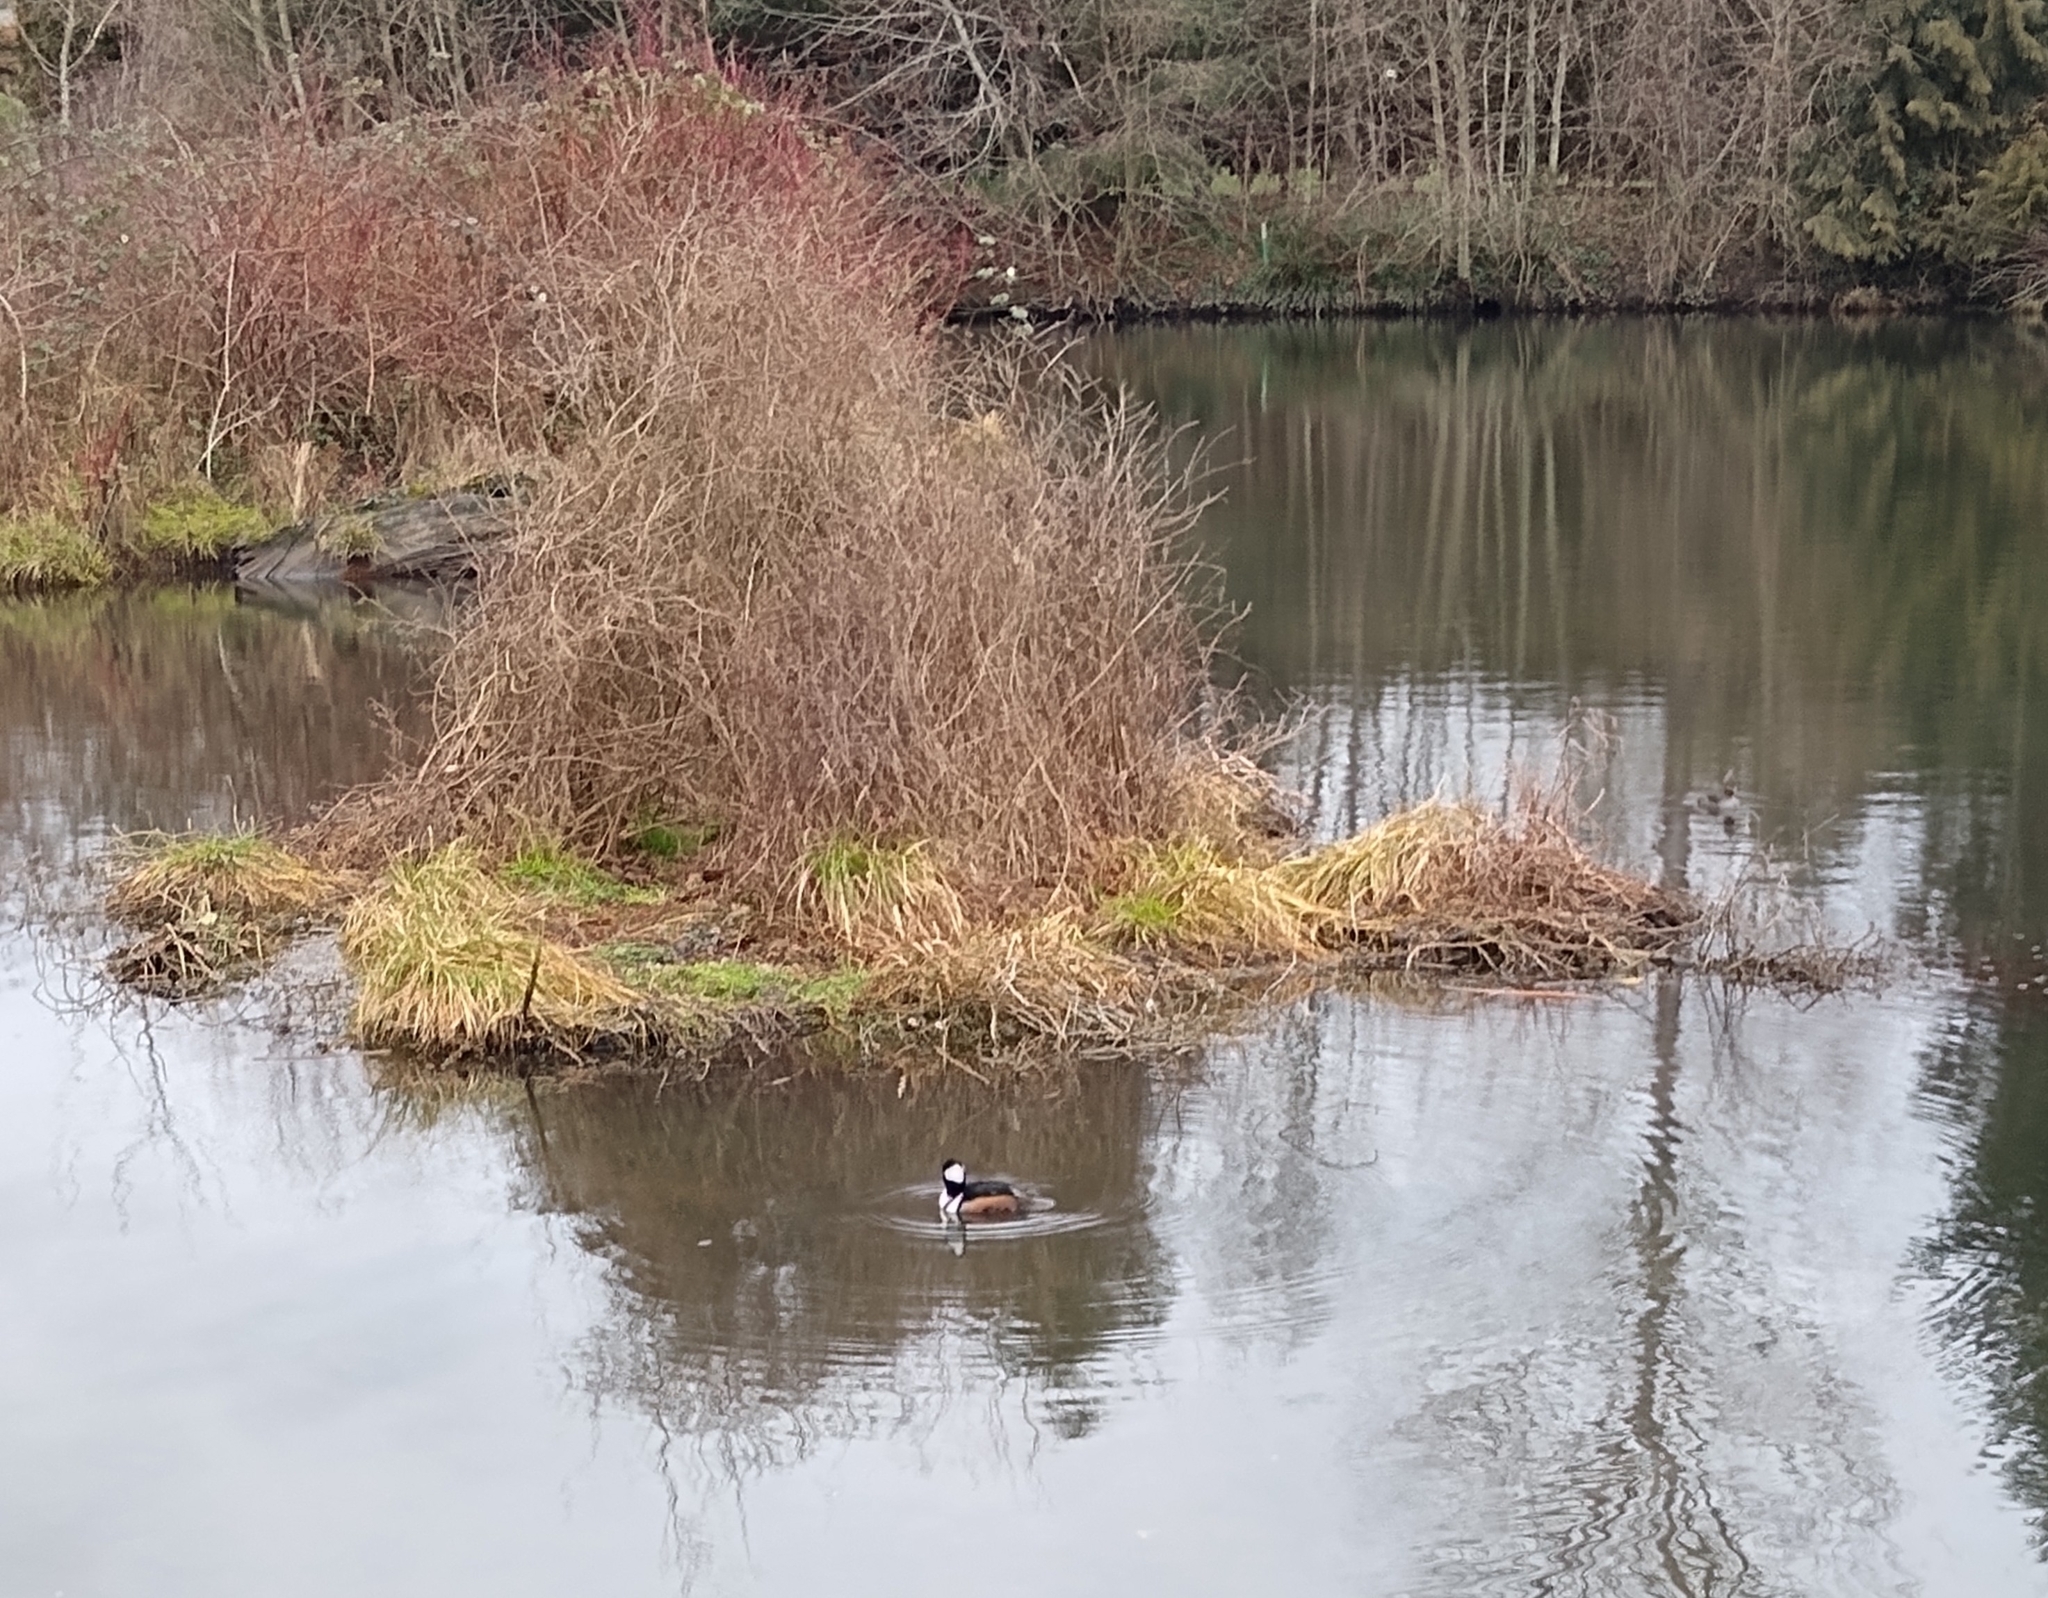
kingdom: Animalia
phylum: Chordata
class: Aves
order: Anseriformes
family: Anatidae
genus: Lophodytes
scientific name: Lophodytes cucullatus
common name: Hooded merganser
